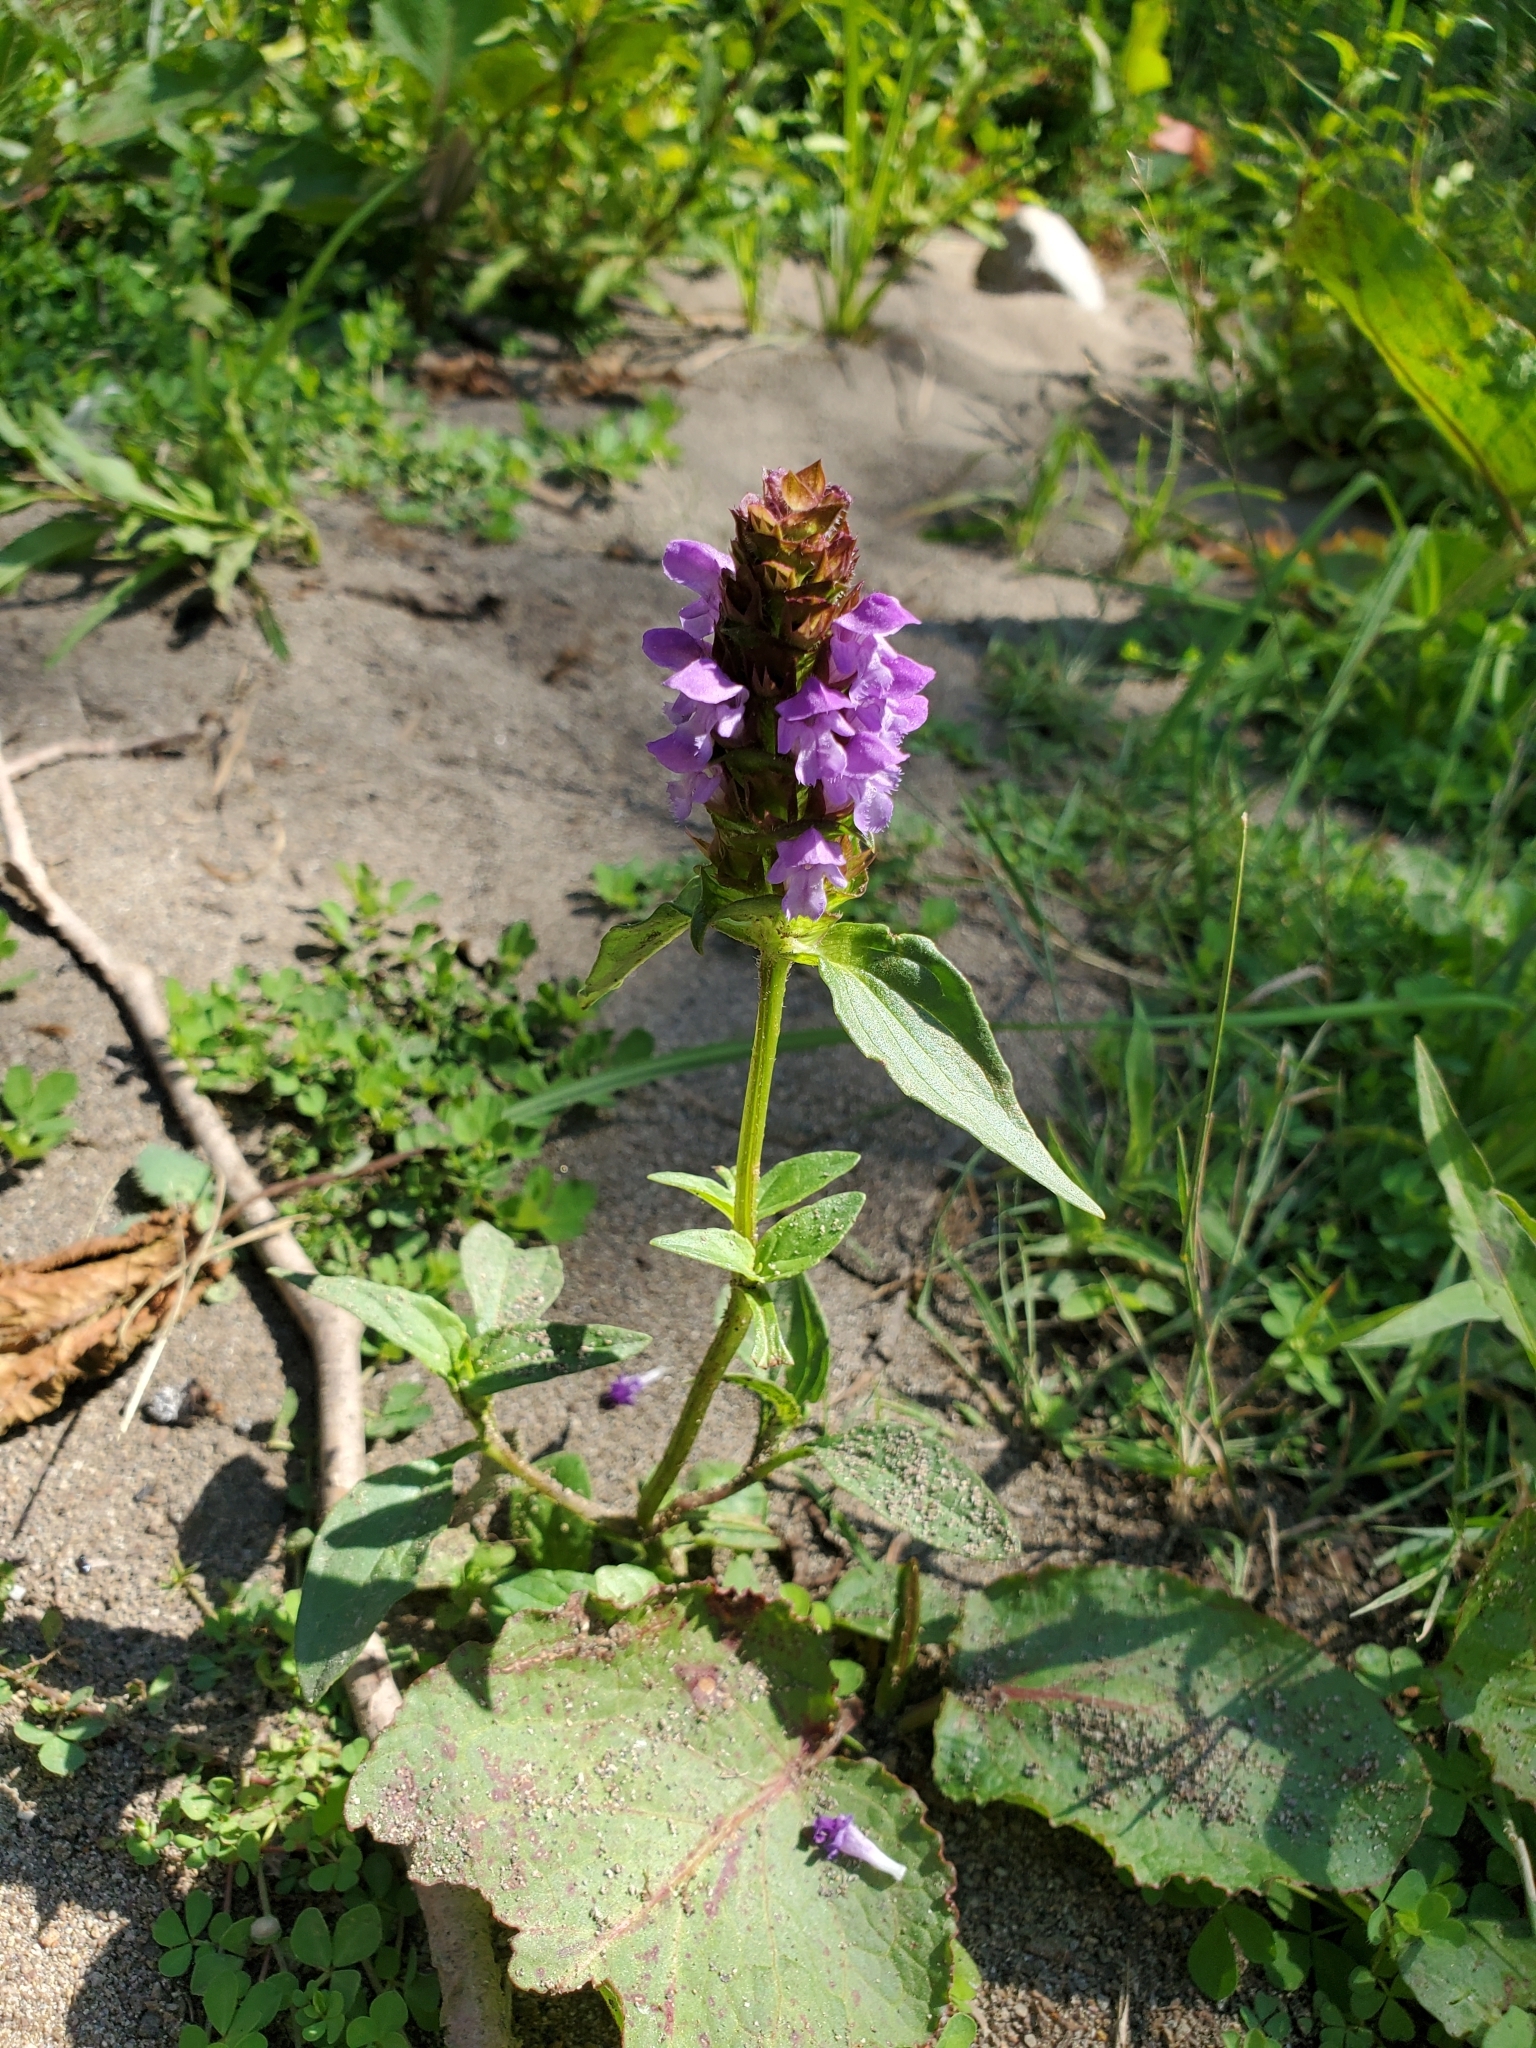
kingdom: Plantae
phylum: Tracheophyta
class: Magnoliopsida
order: Lamiales
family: Lamiaceae
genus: Prunella
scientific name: Prunella vulgaris
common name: Heal-all
